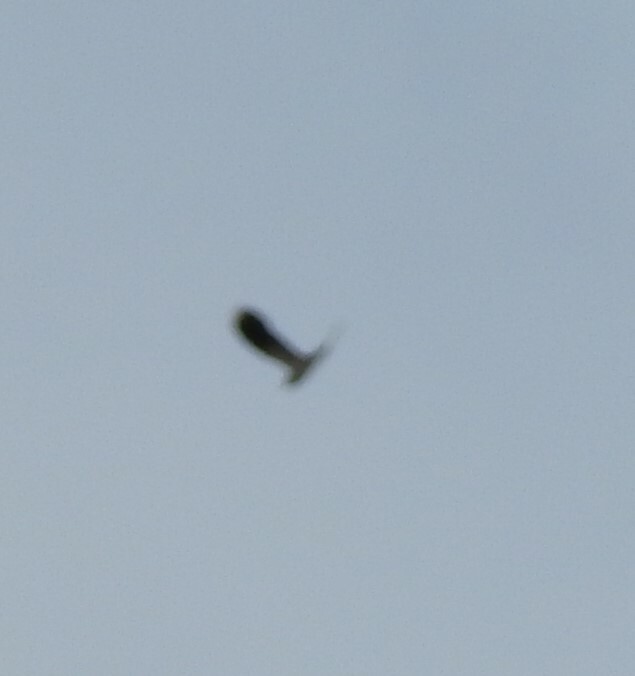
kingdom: Animalia
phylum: Chordata
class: Aves
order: Charadriiformes
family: Charadriidae
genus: Vanellus
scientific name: Vanellus vanellus
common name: Northern lapwing
